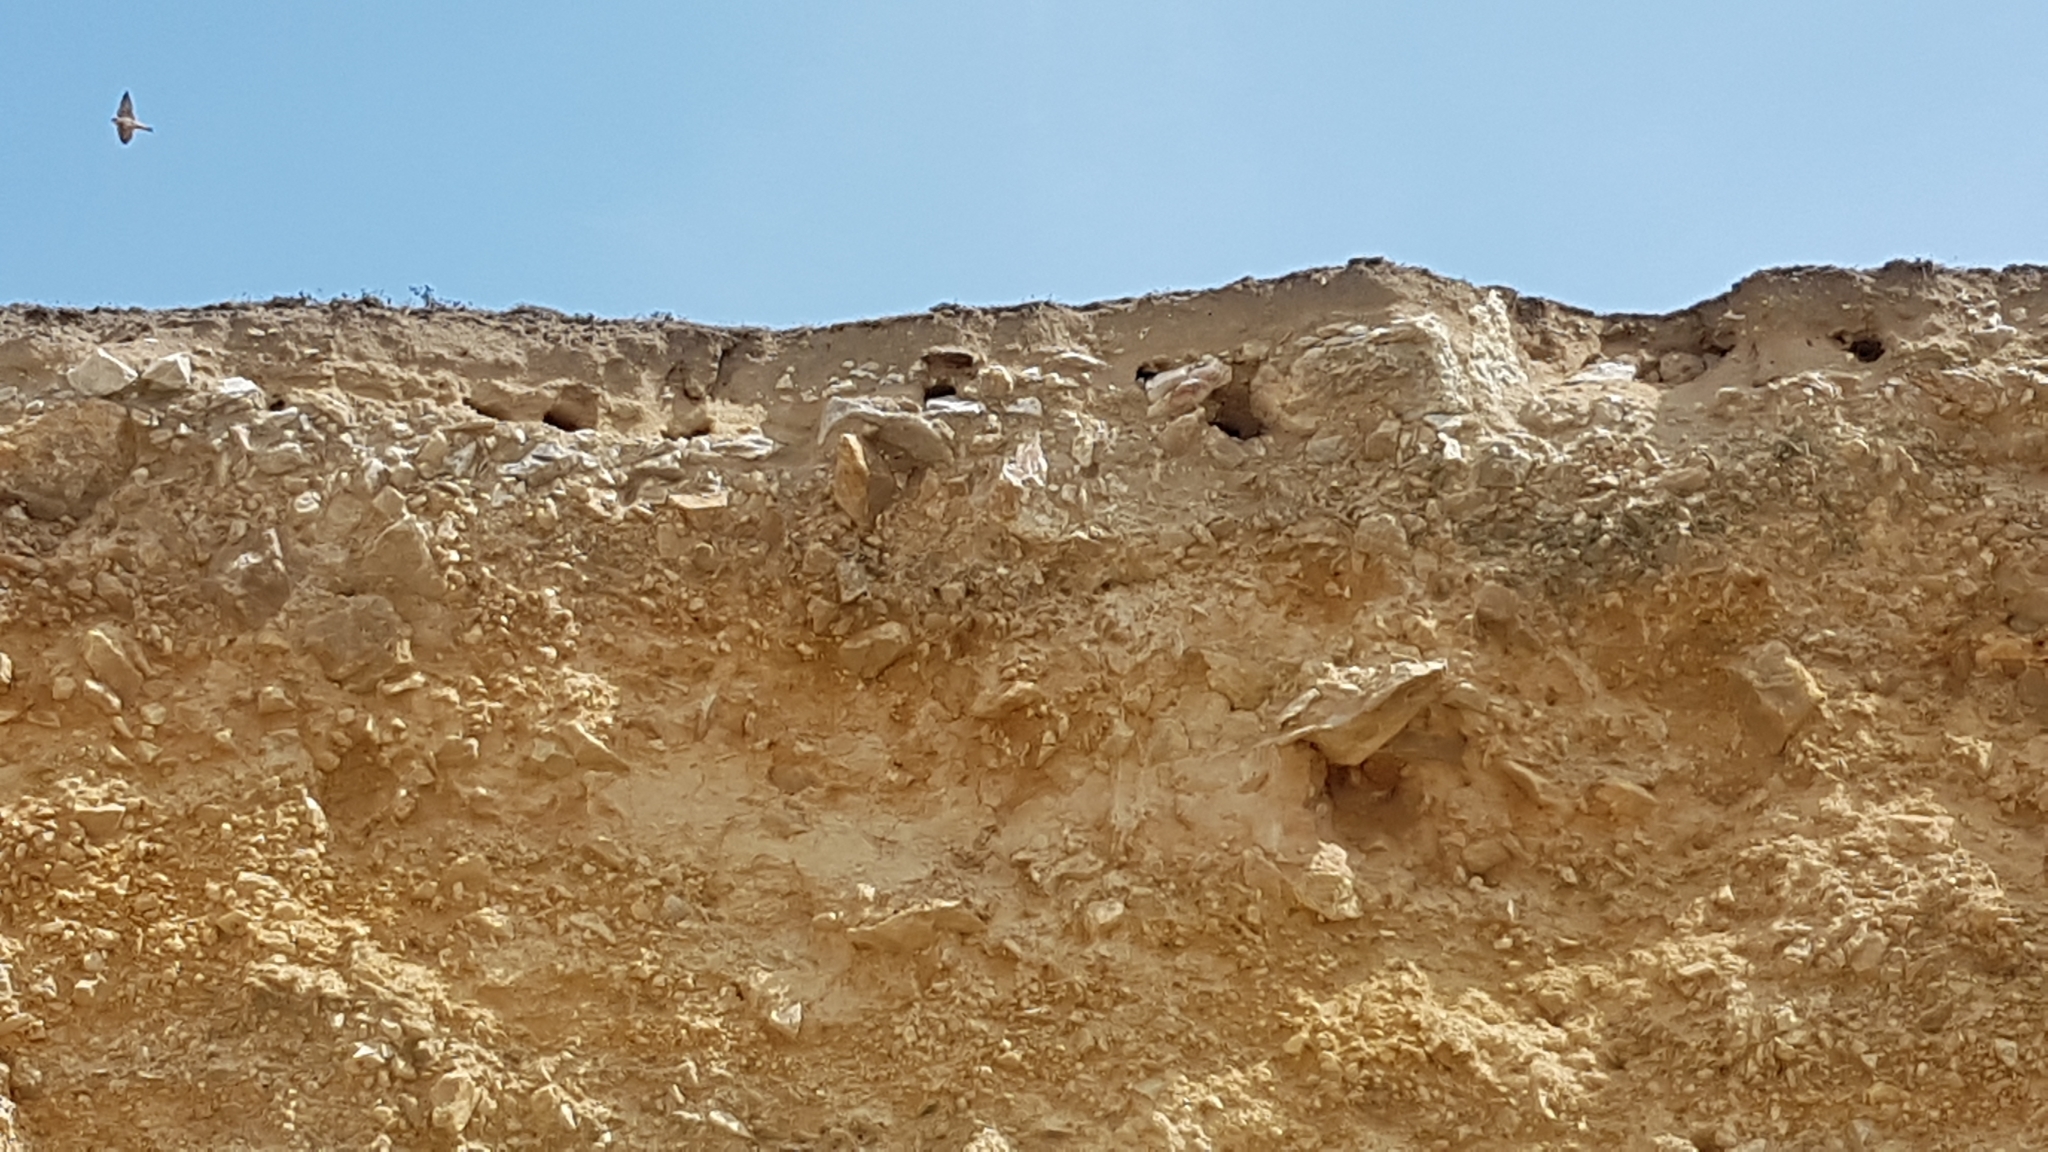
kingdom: Animalia
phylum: Chordata
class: Aves
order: Passeriformes
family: Hirundinidae
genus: Riparia
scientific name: Riparia riparia
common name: Sand martin
